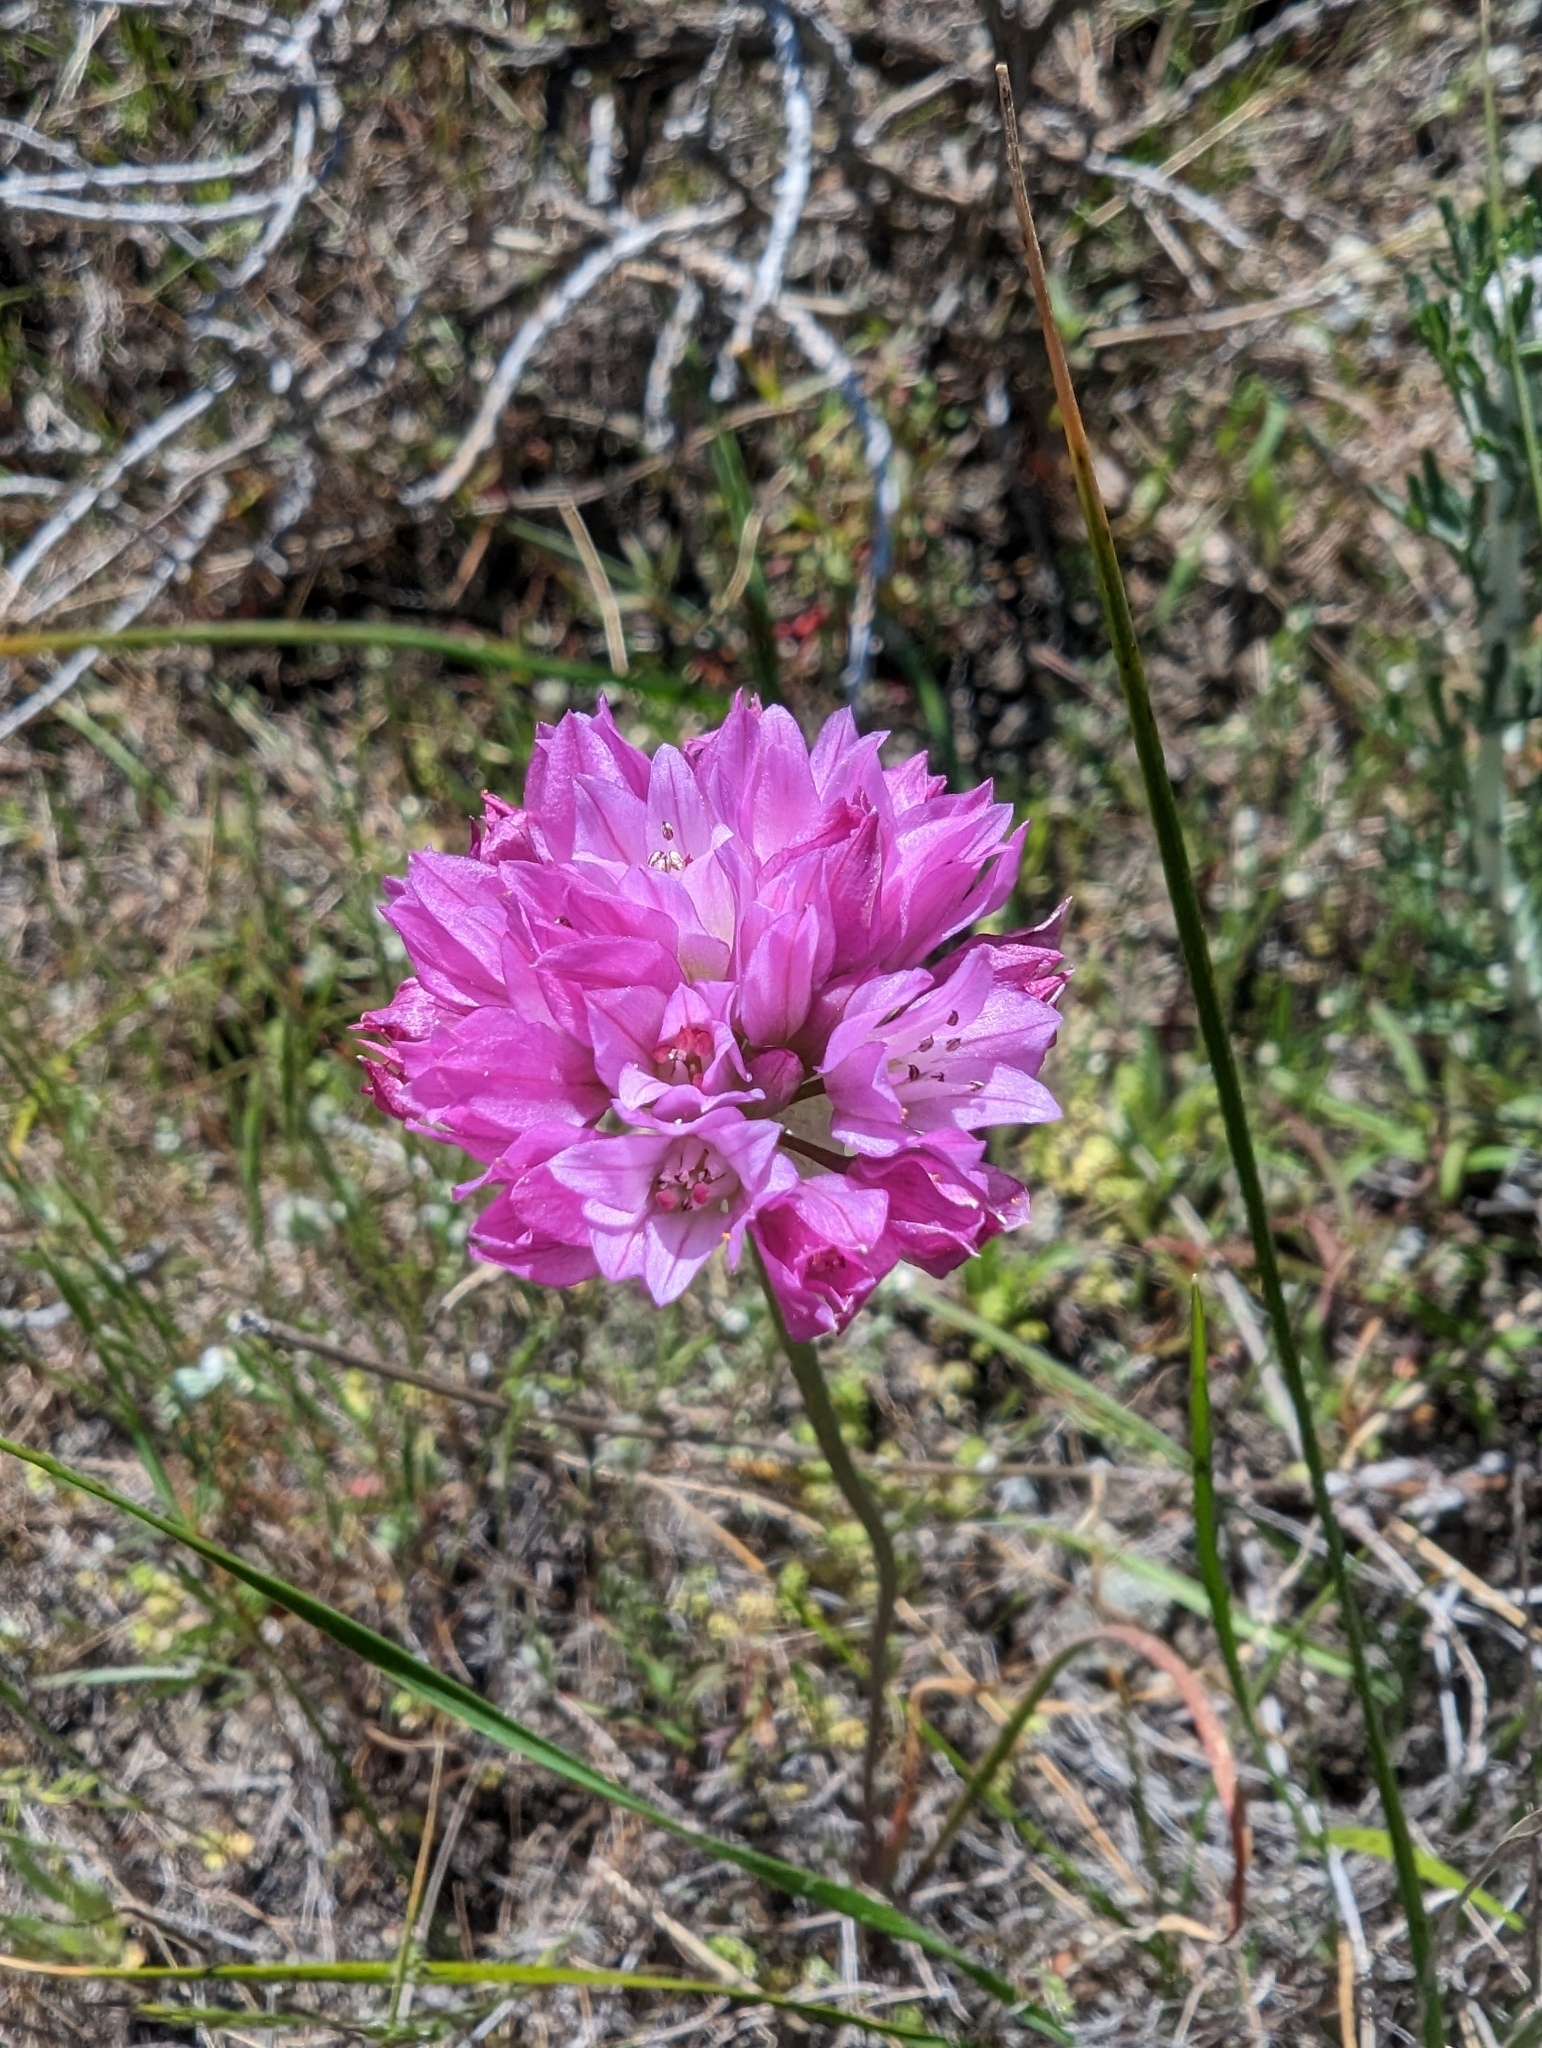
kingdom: Plantae
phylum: Tracheophyta
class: Liliopsida
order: Asparagales
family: Amaryllidaceae
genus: Allium
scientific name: Allium serra
